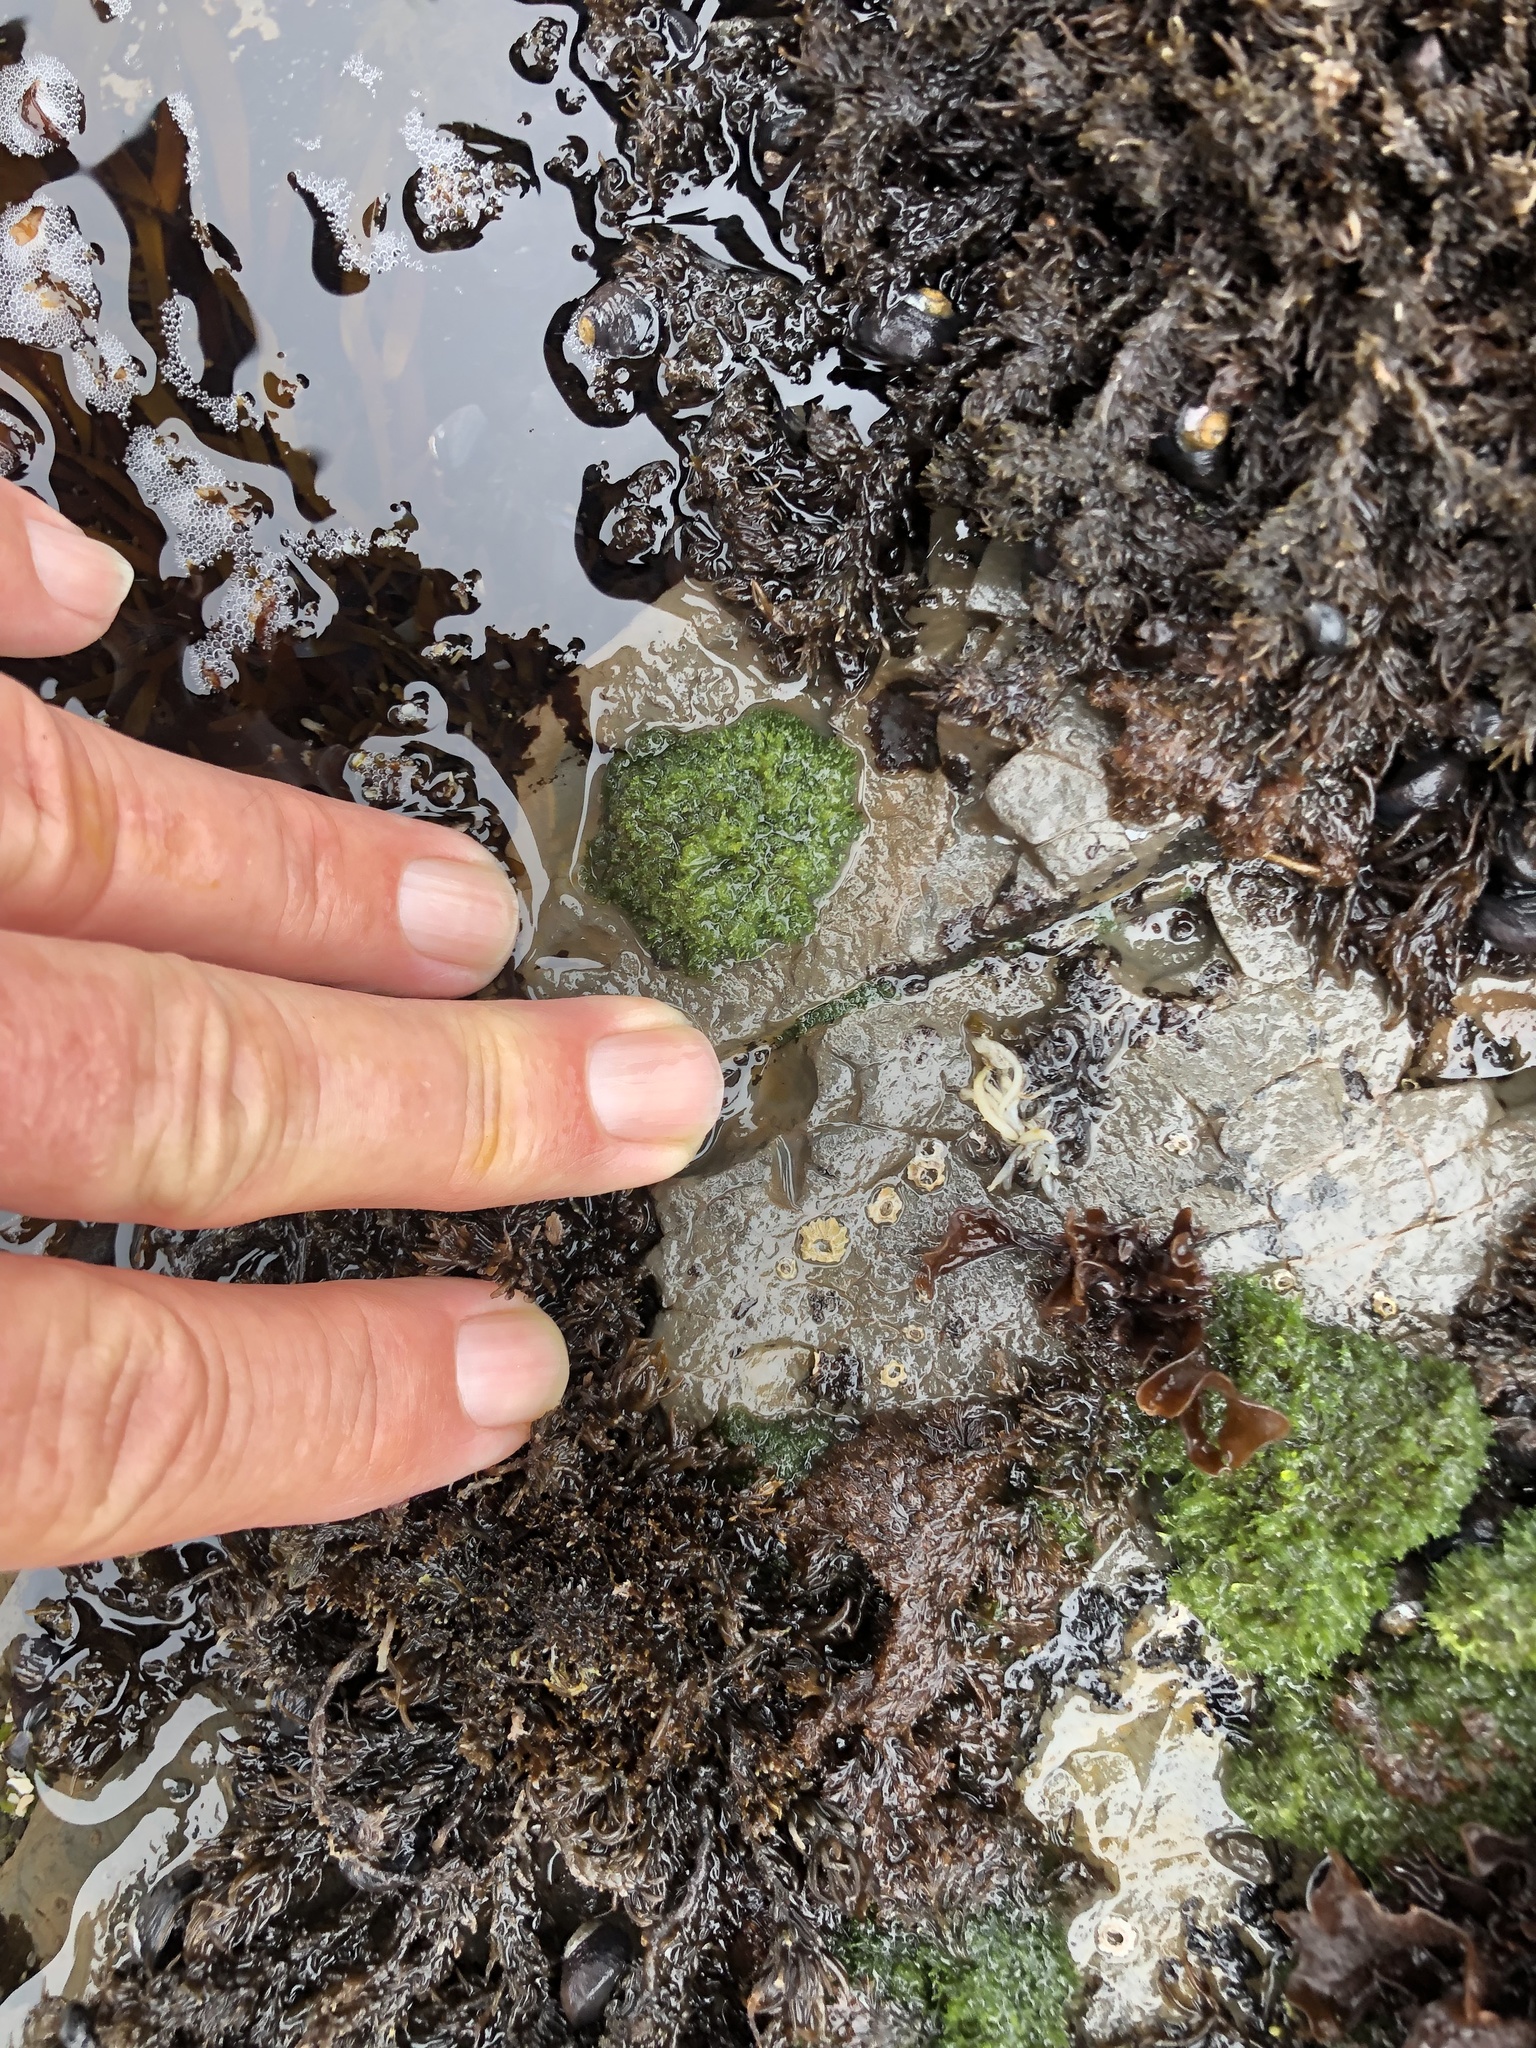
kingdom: Plantae
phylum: Chlorophyta
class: Ulvophyceae
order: Cladophorales
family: Cladophoraceae
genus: Cladophora
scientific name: Cladophora columbiana
